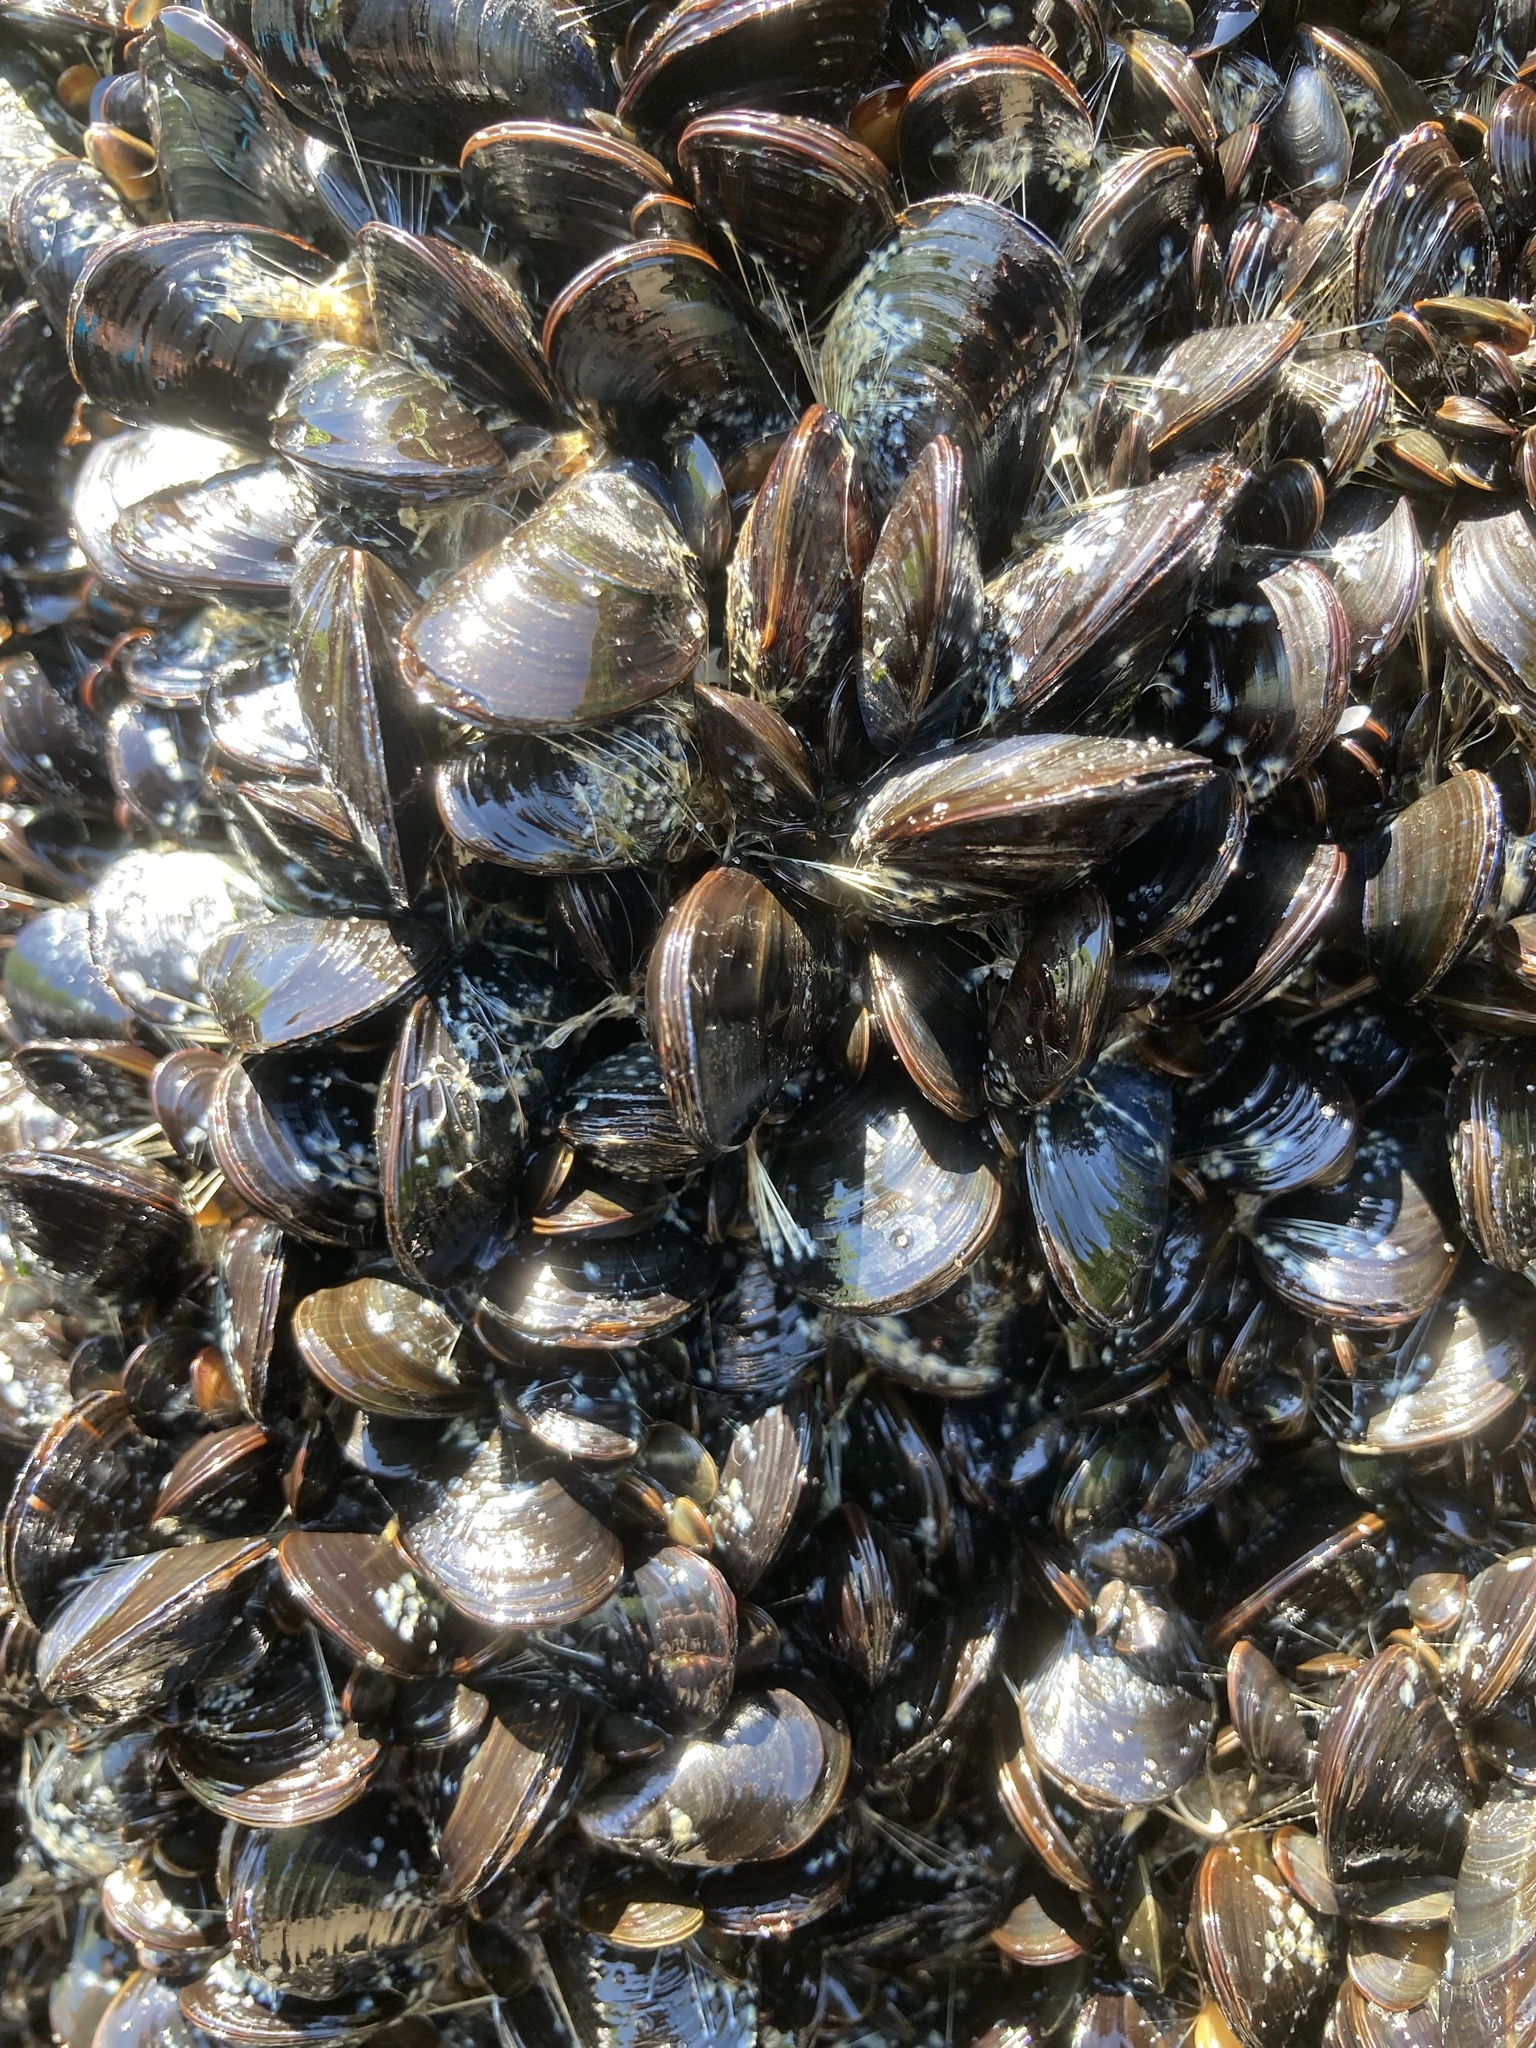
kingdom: Animalia
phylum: Mollusca
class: Bivalvia
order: Mytilida
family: Mytilidae
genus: Mytilus
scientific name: Mytilus edulis
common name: Blue mussel
